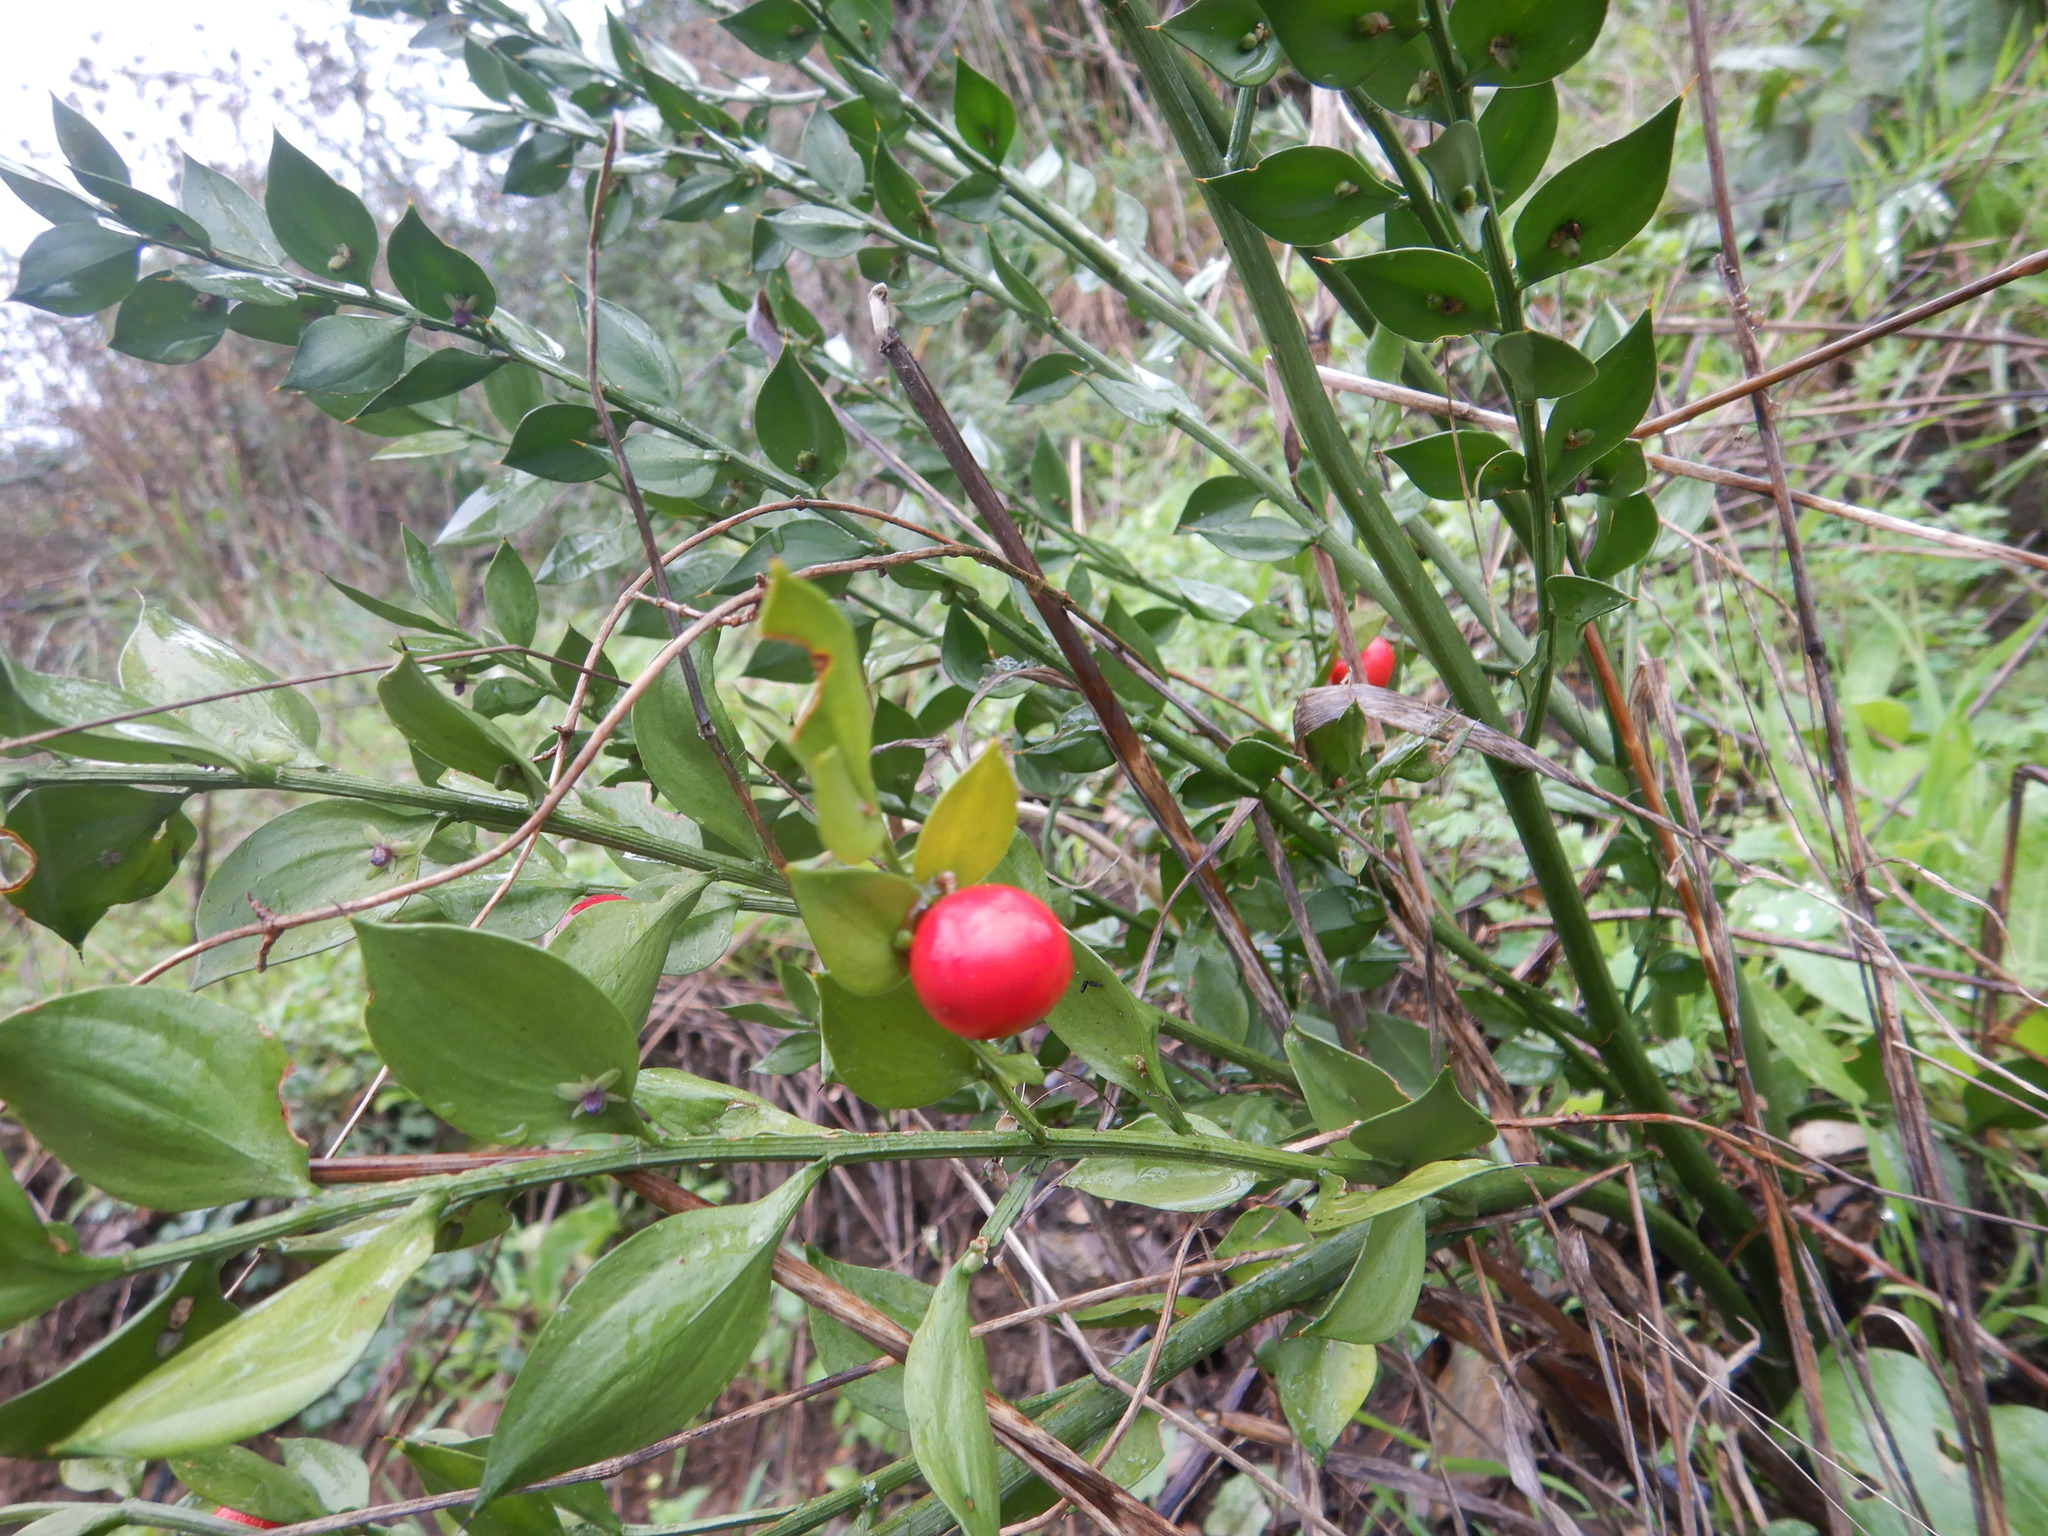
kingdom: Plantae
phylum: Tracheophyta
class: Liliopsida
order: Asparagales
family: Asparagaceae
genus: Ruscus
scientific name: Ruscus aculeatus
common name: Butcher's-broom
